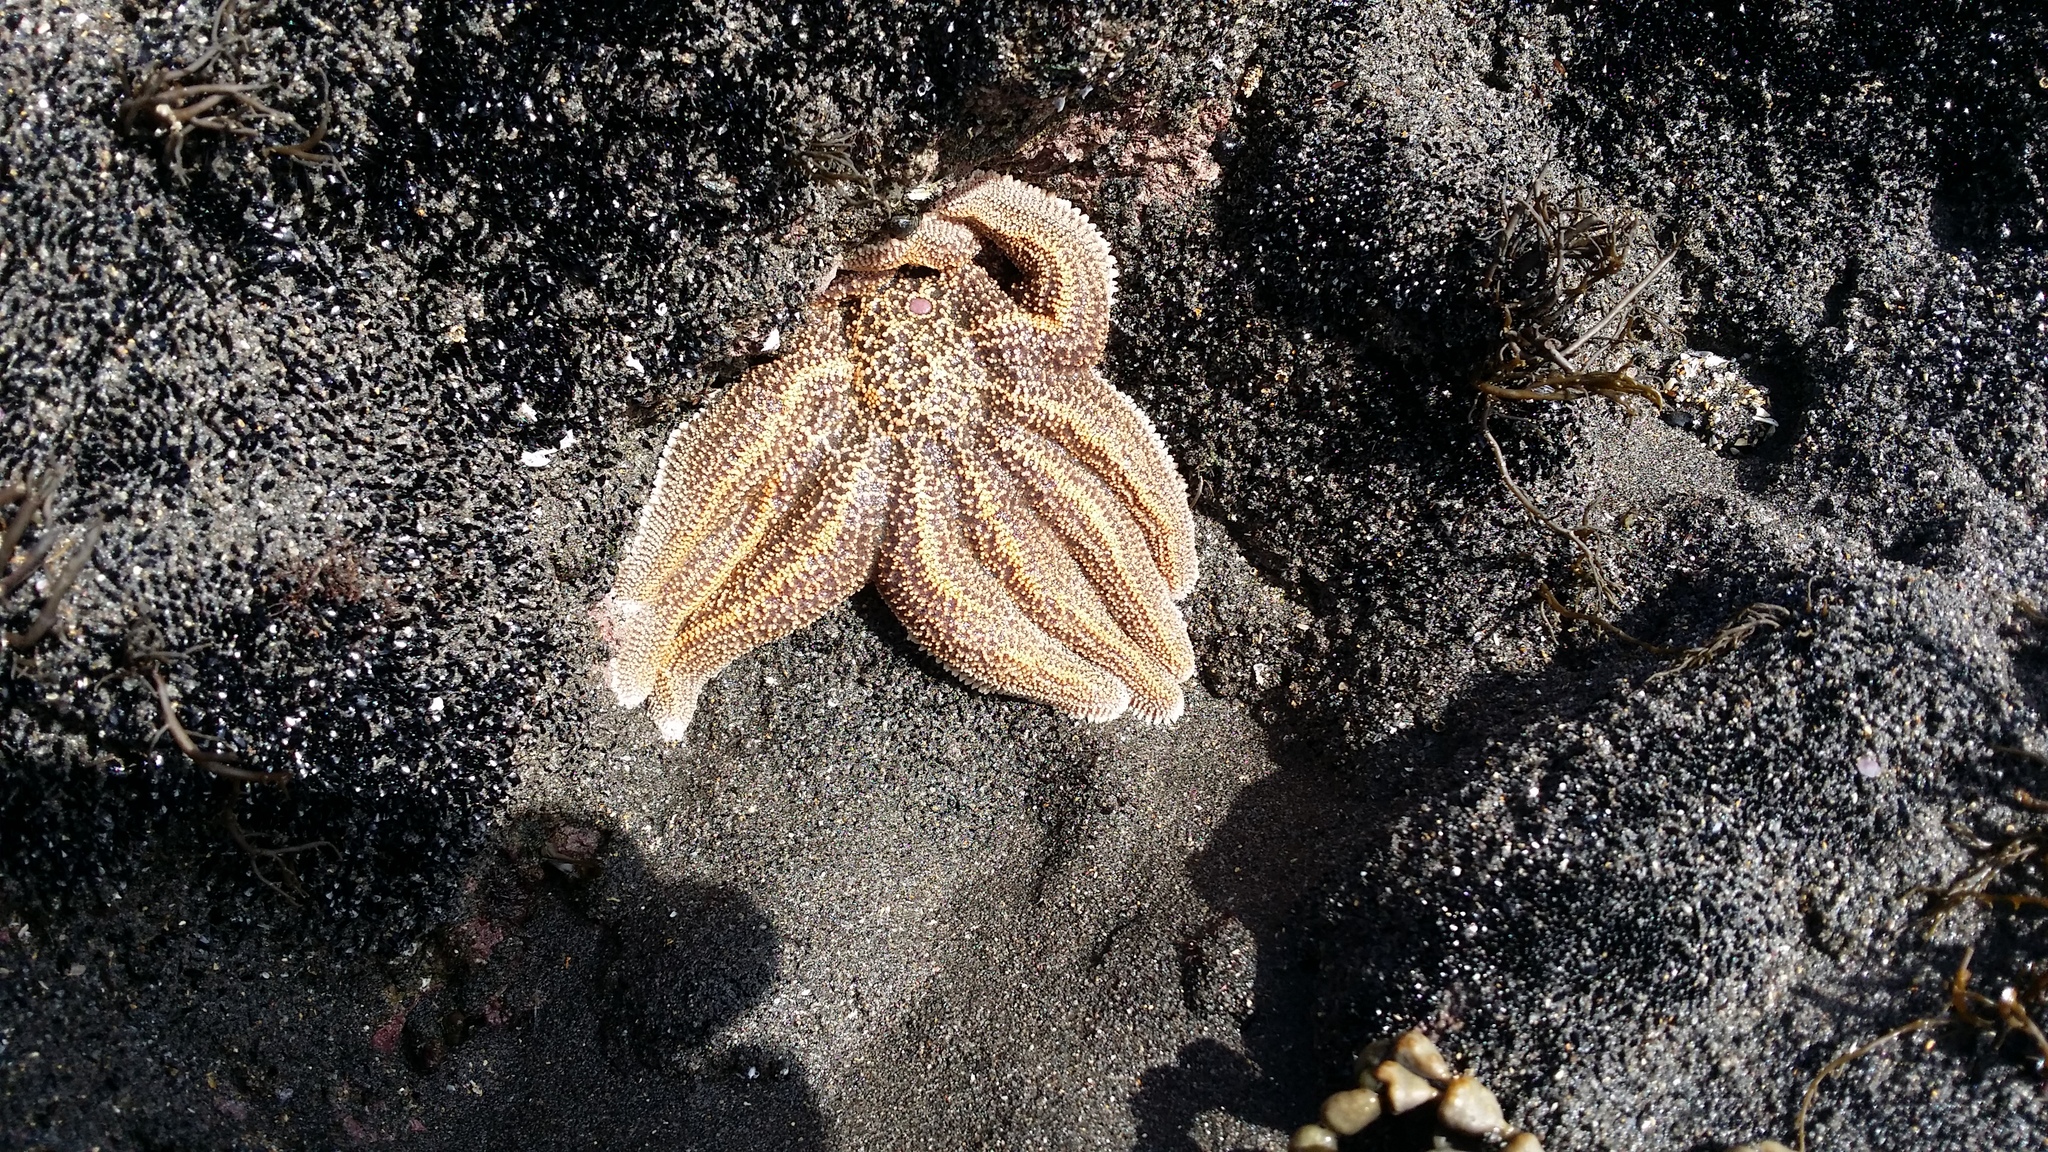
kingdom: Animalia
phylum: Echinodermata
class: Asteroidea
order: Forcipulatida
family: Stichasteridae
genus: Stichaster
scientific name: Stichaster australis
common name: Reef starfish
